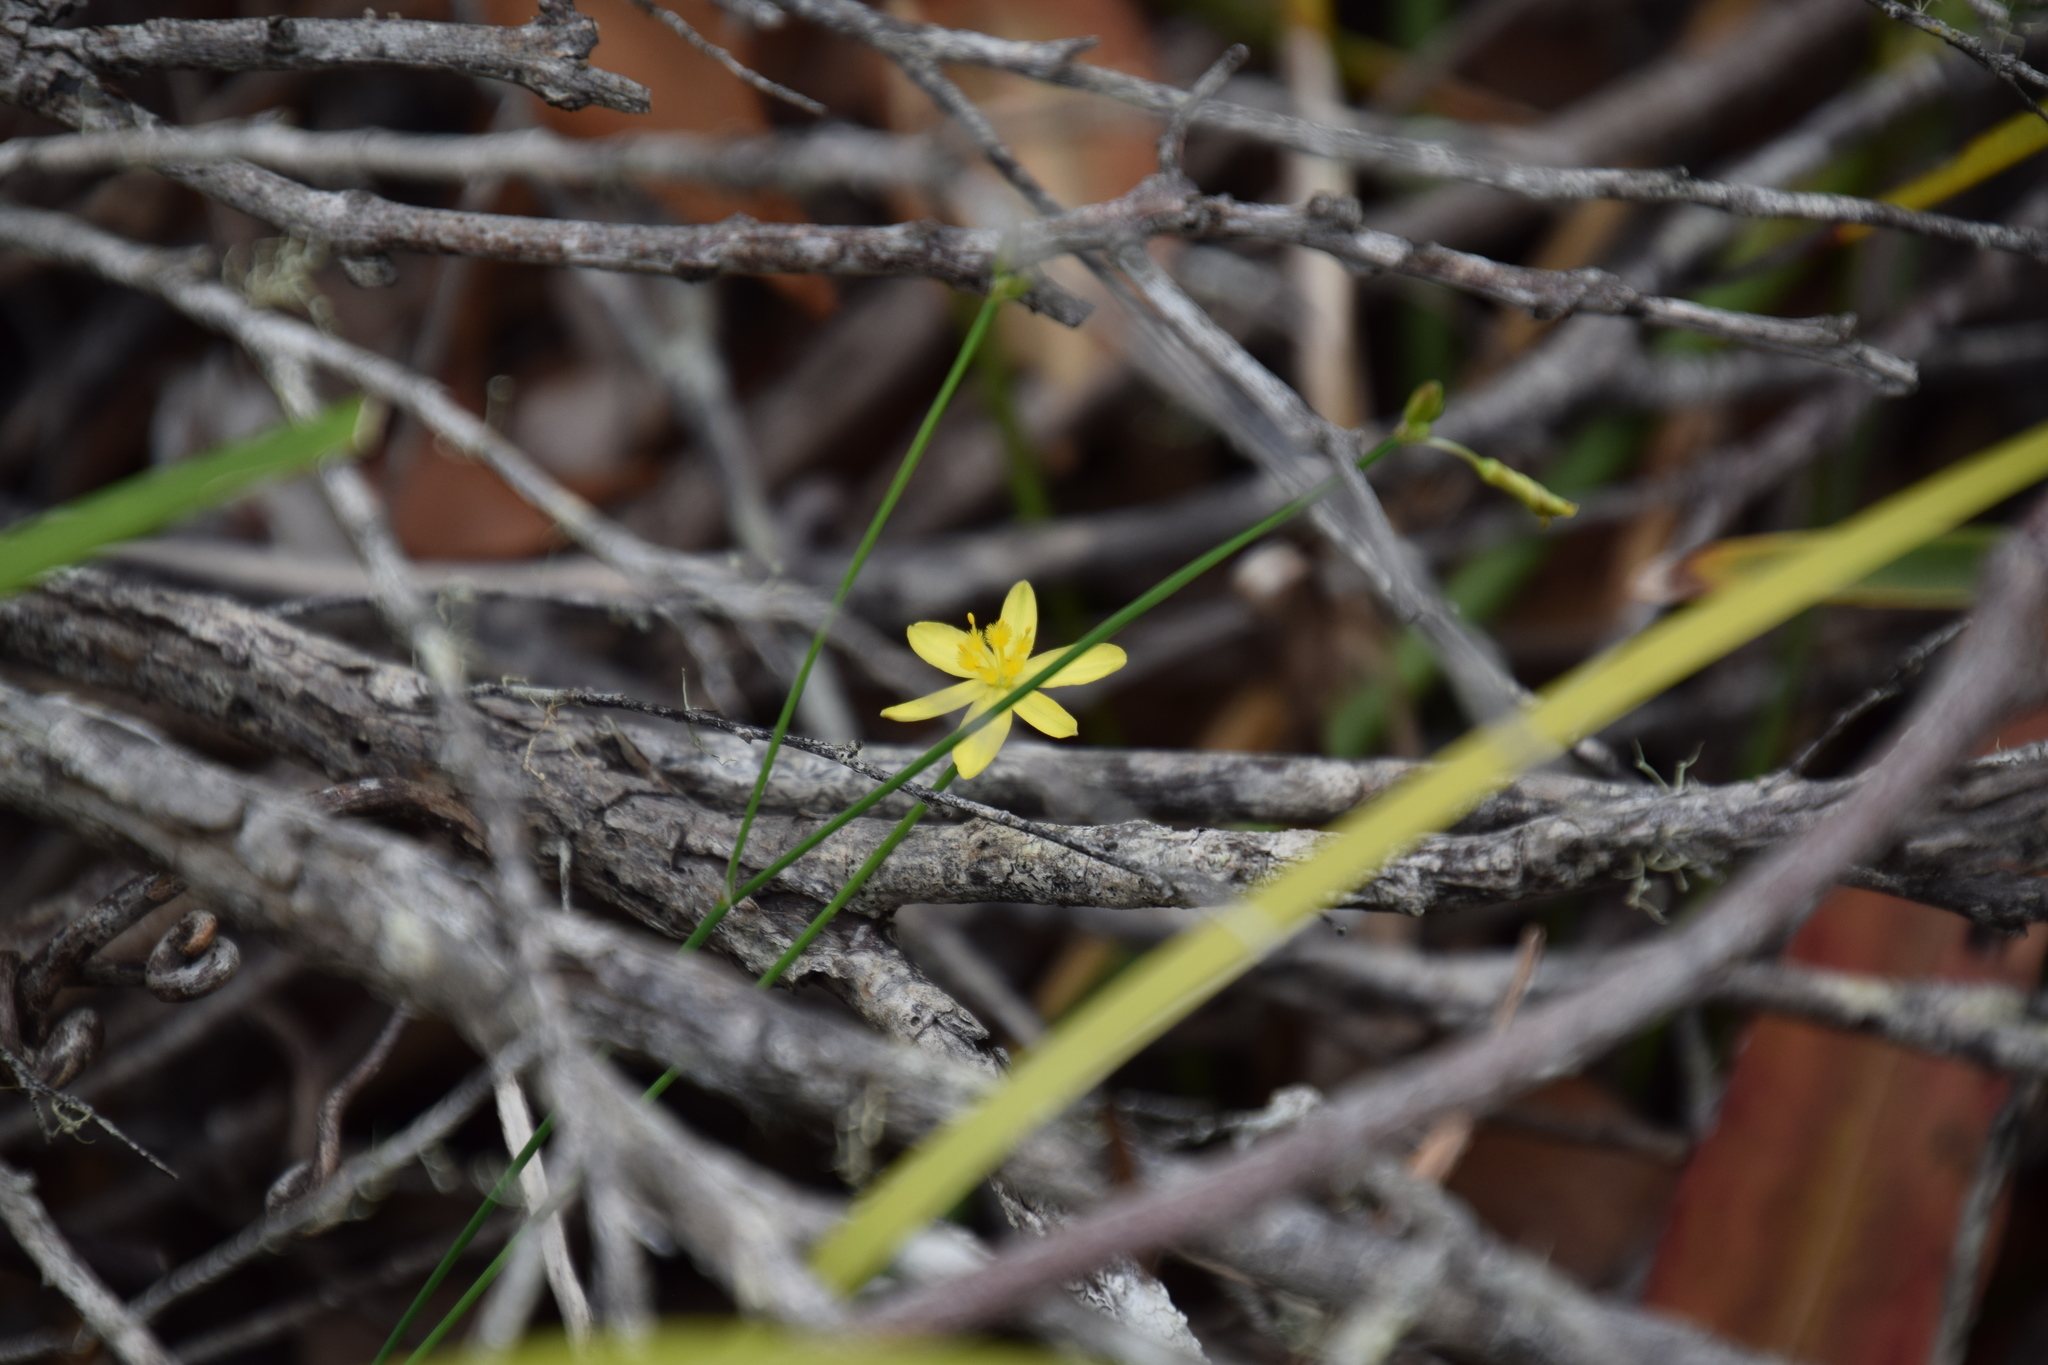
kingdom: Plantae
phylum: Tracheophyta
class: Liliopsida
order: Asparagales
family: Asphodelaceae
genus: Tricoryne
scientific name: Tricoryne elatior
